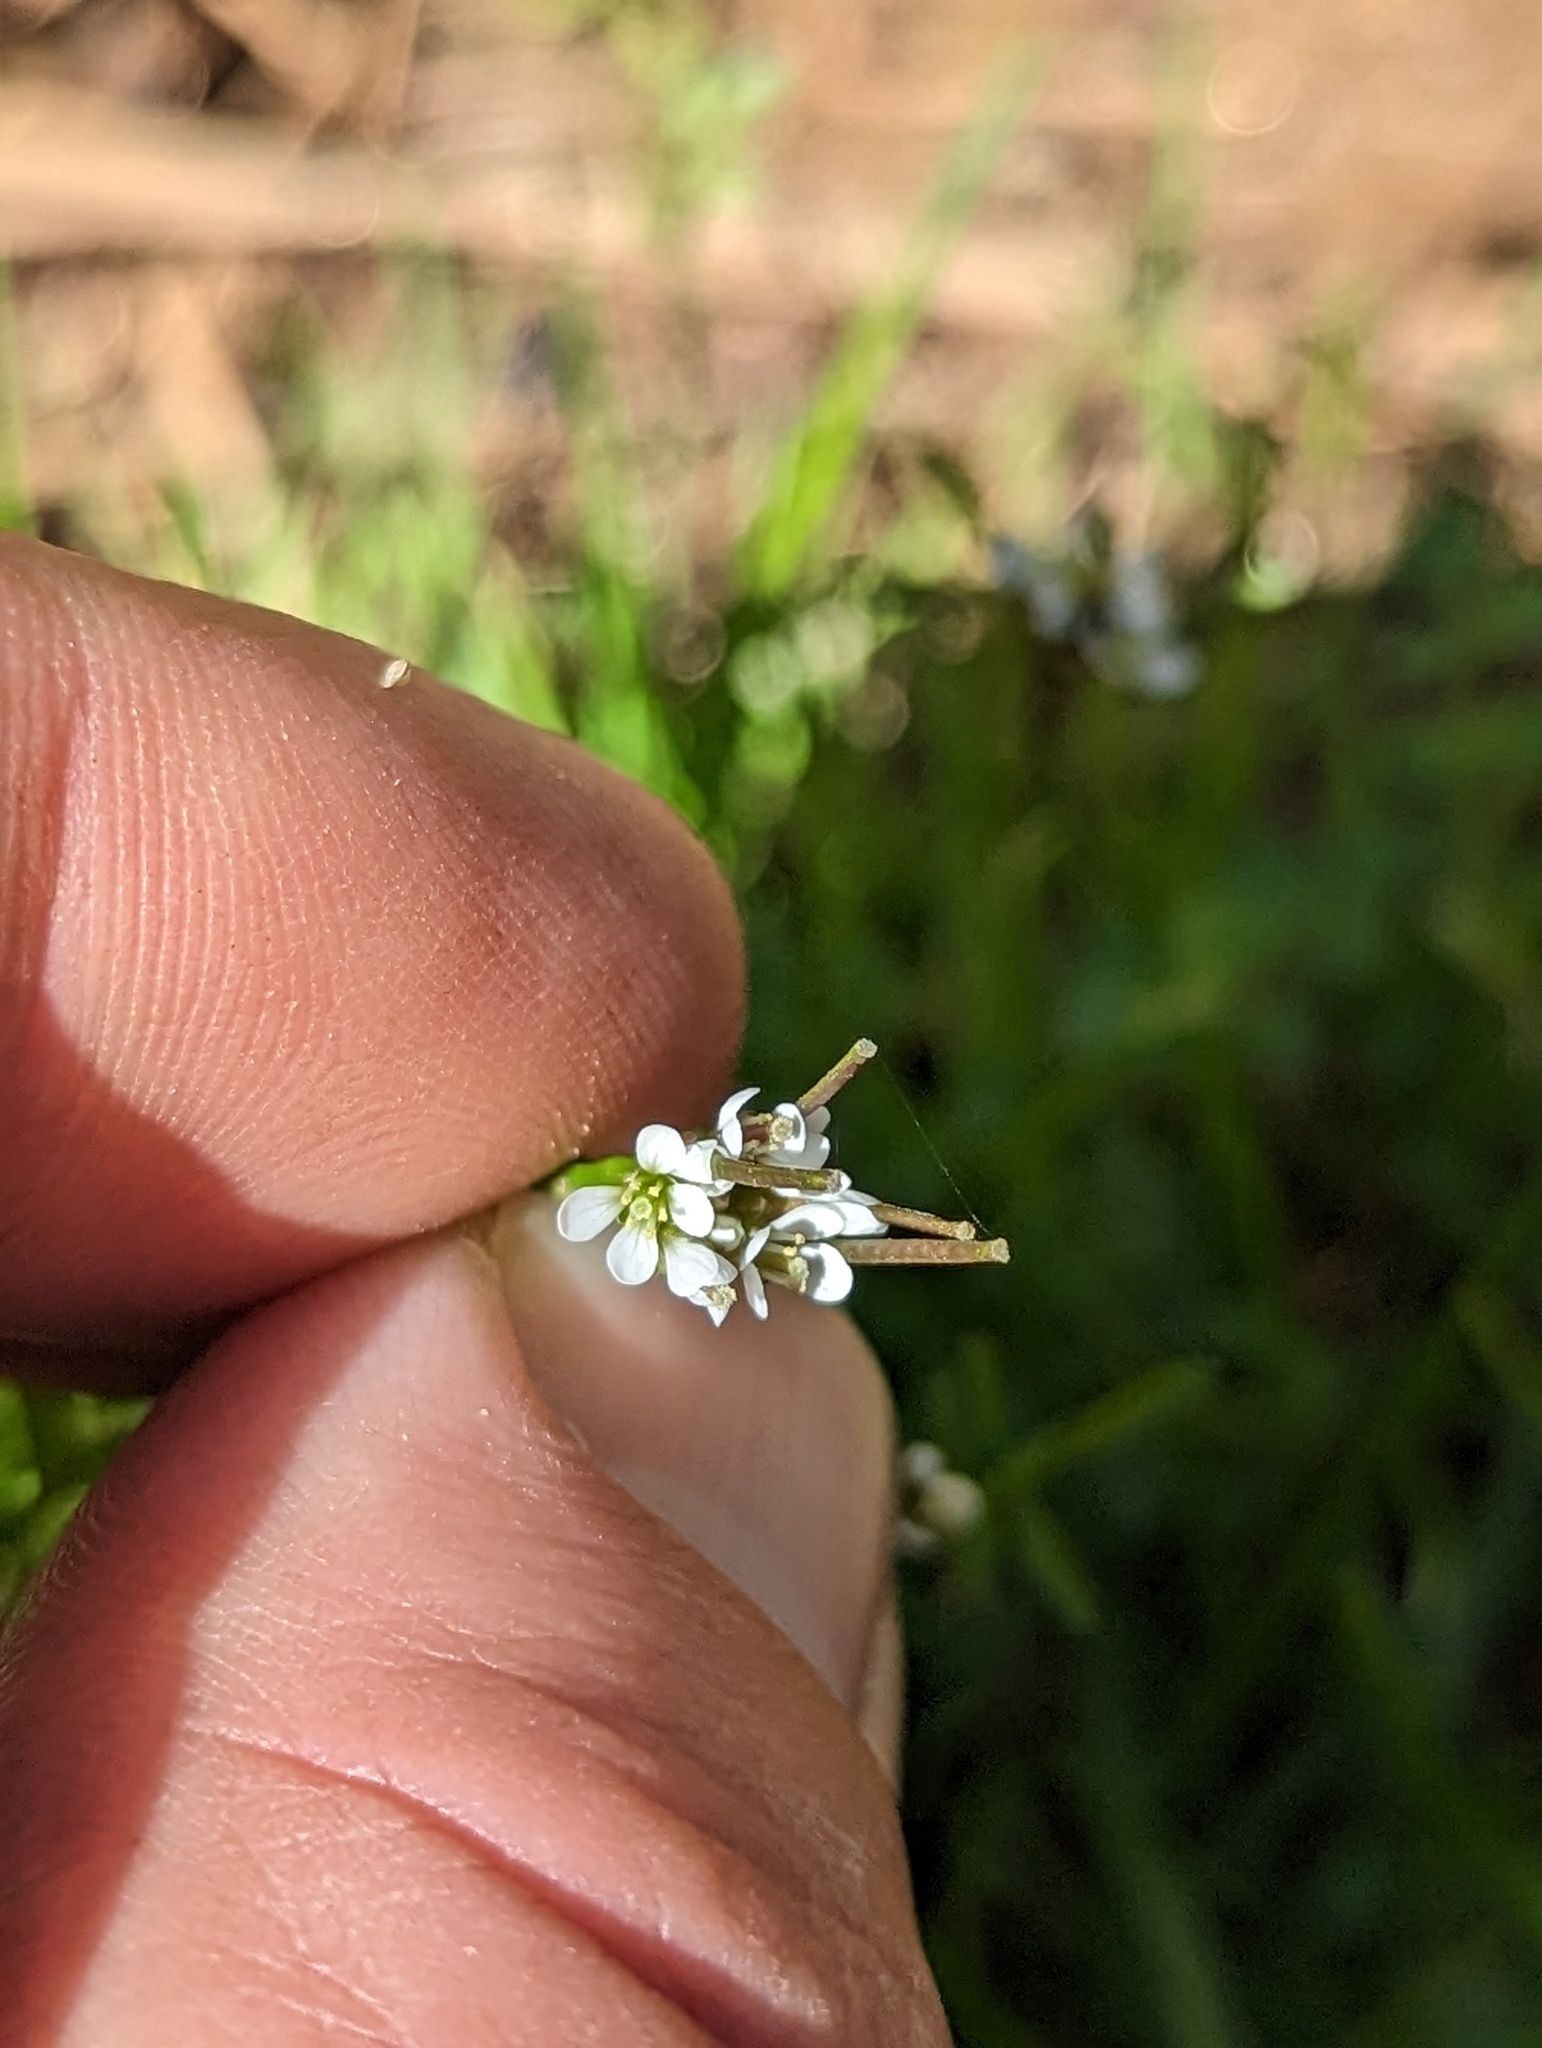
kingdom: Plantae
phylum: Tracheophyta
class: Magnoliopsida
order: Brassicales
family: Brassicaceae
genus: Cardamine
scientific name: Cardamine hirsuta
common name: Hairy bittercress
